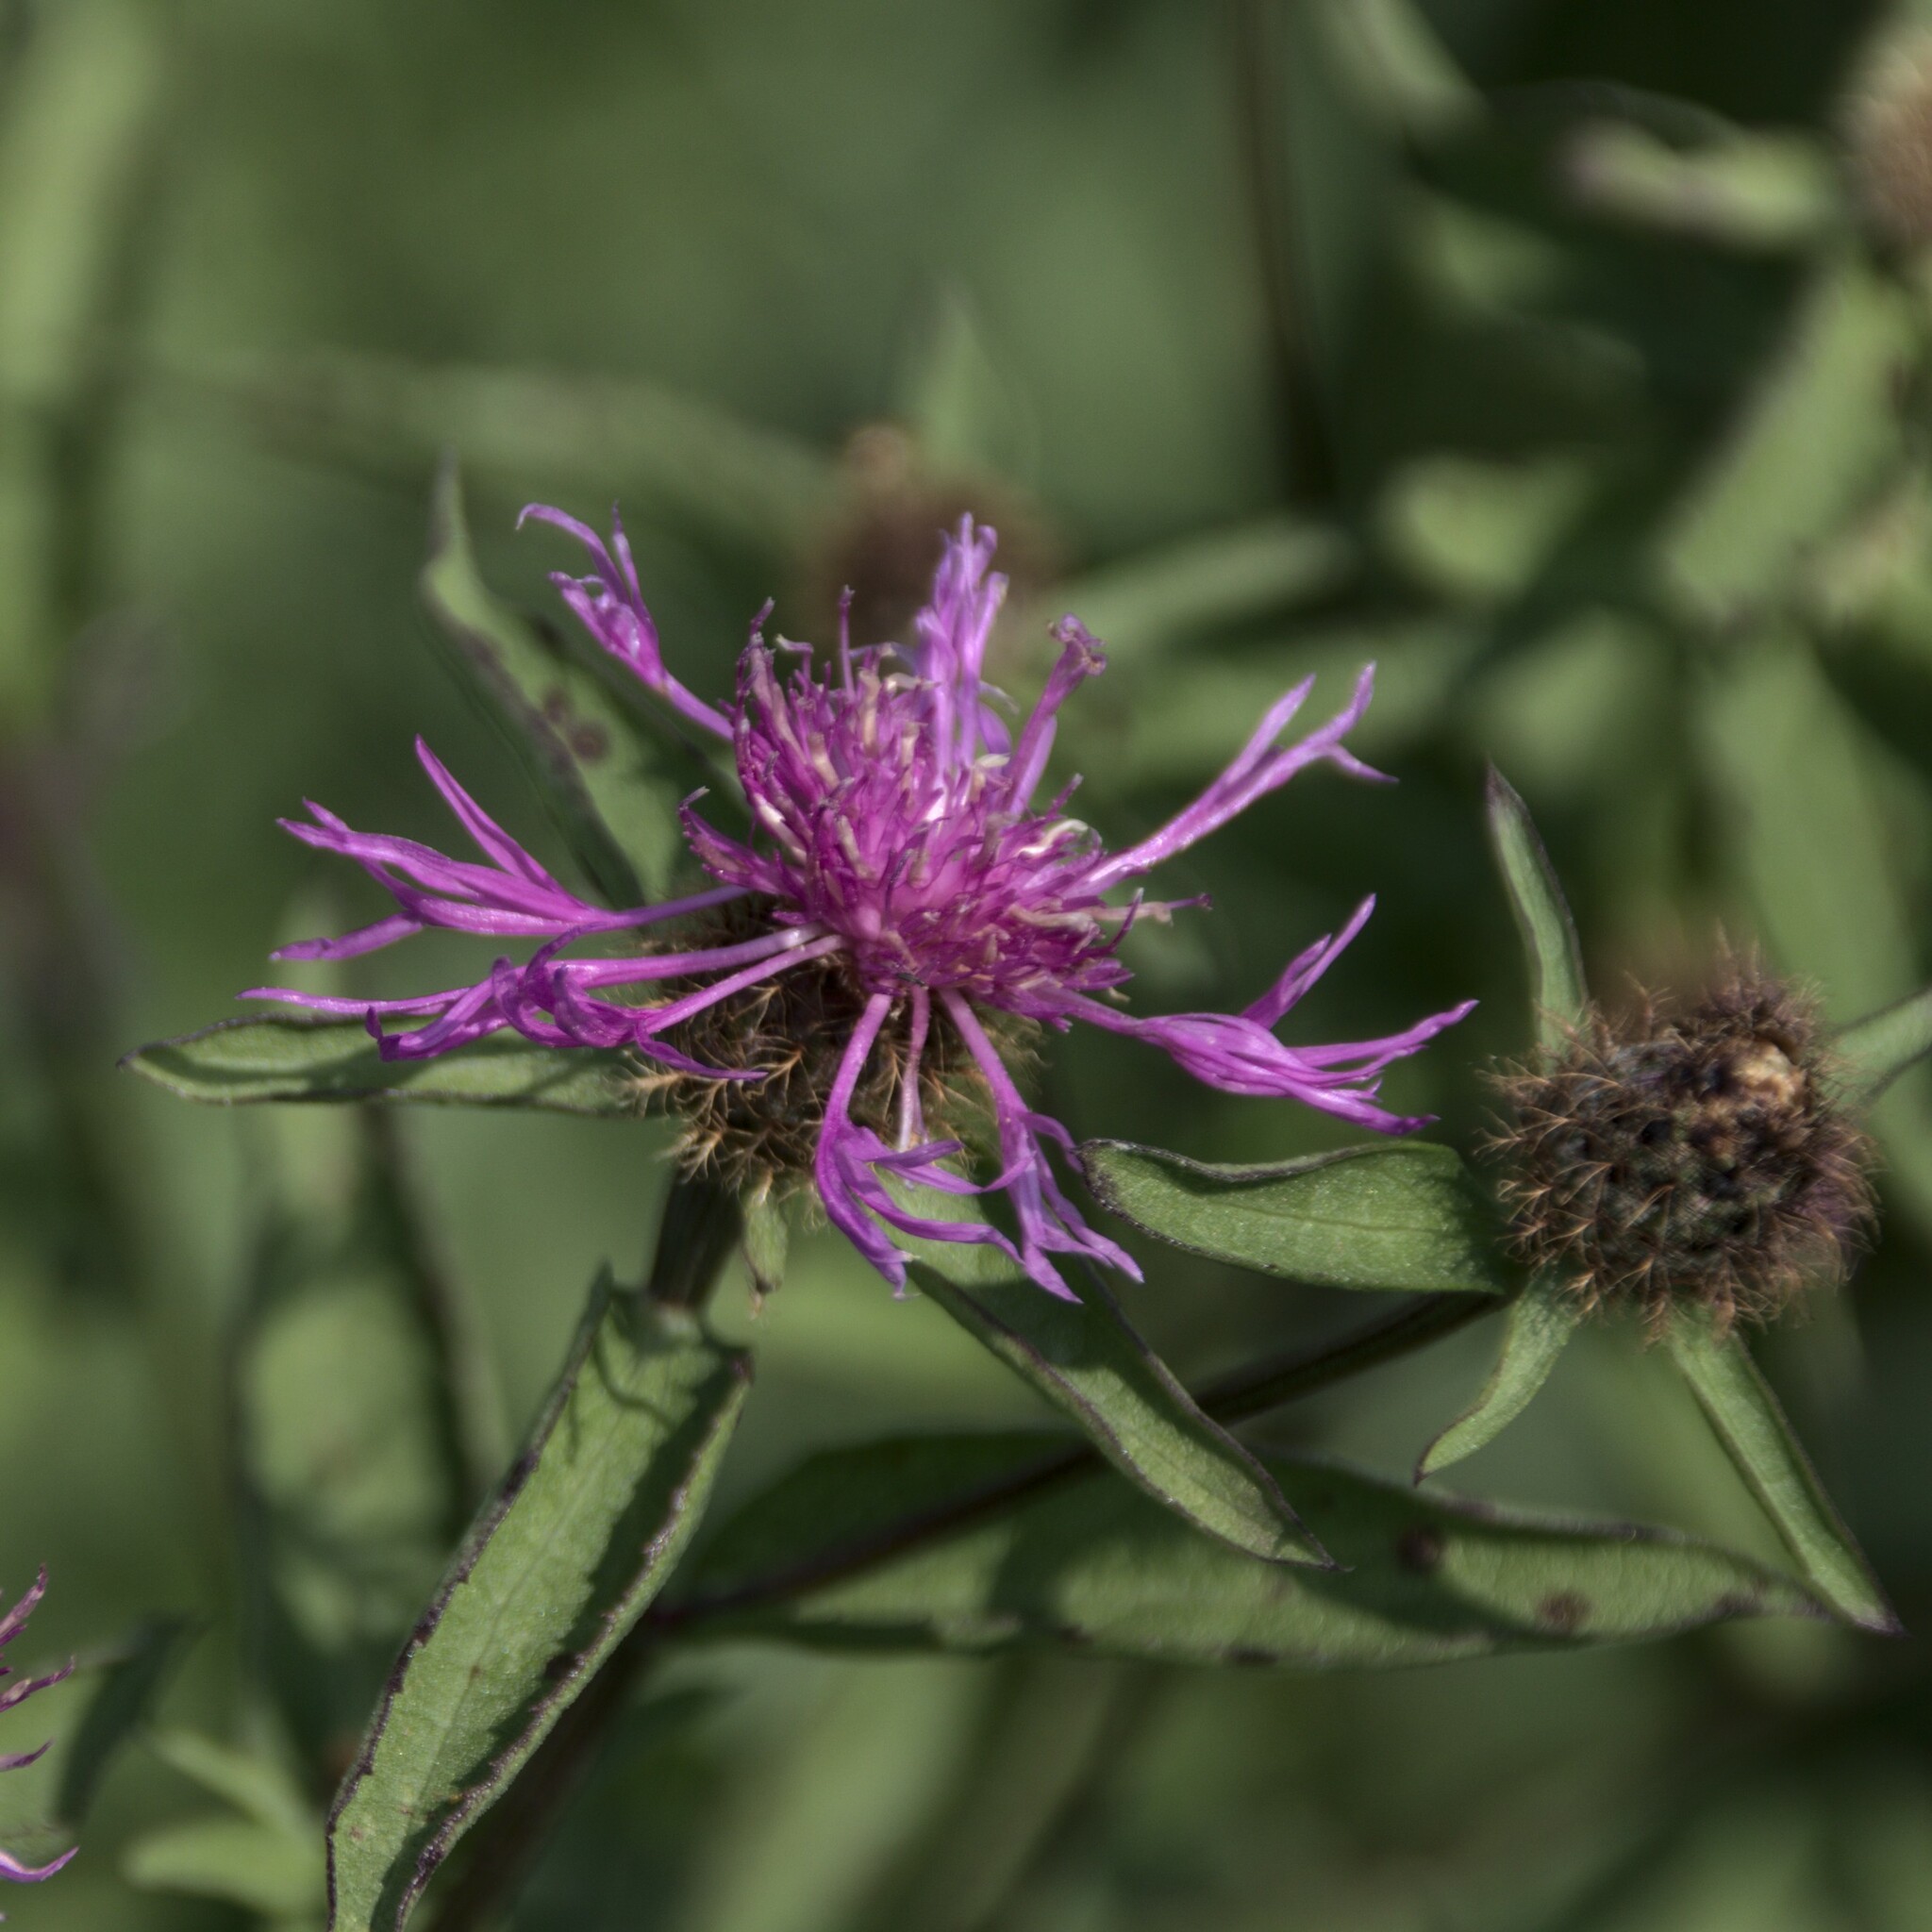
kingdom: Plantae
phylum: Tracheophyta
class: Magnoliopsida
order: Asterales
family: Asteraceae
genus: Centaurea
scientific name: Centaurea phrygia
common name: Wig knapweed
